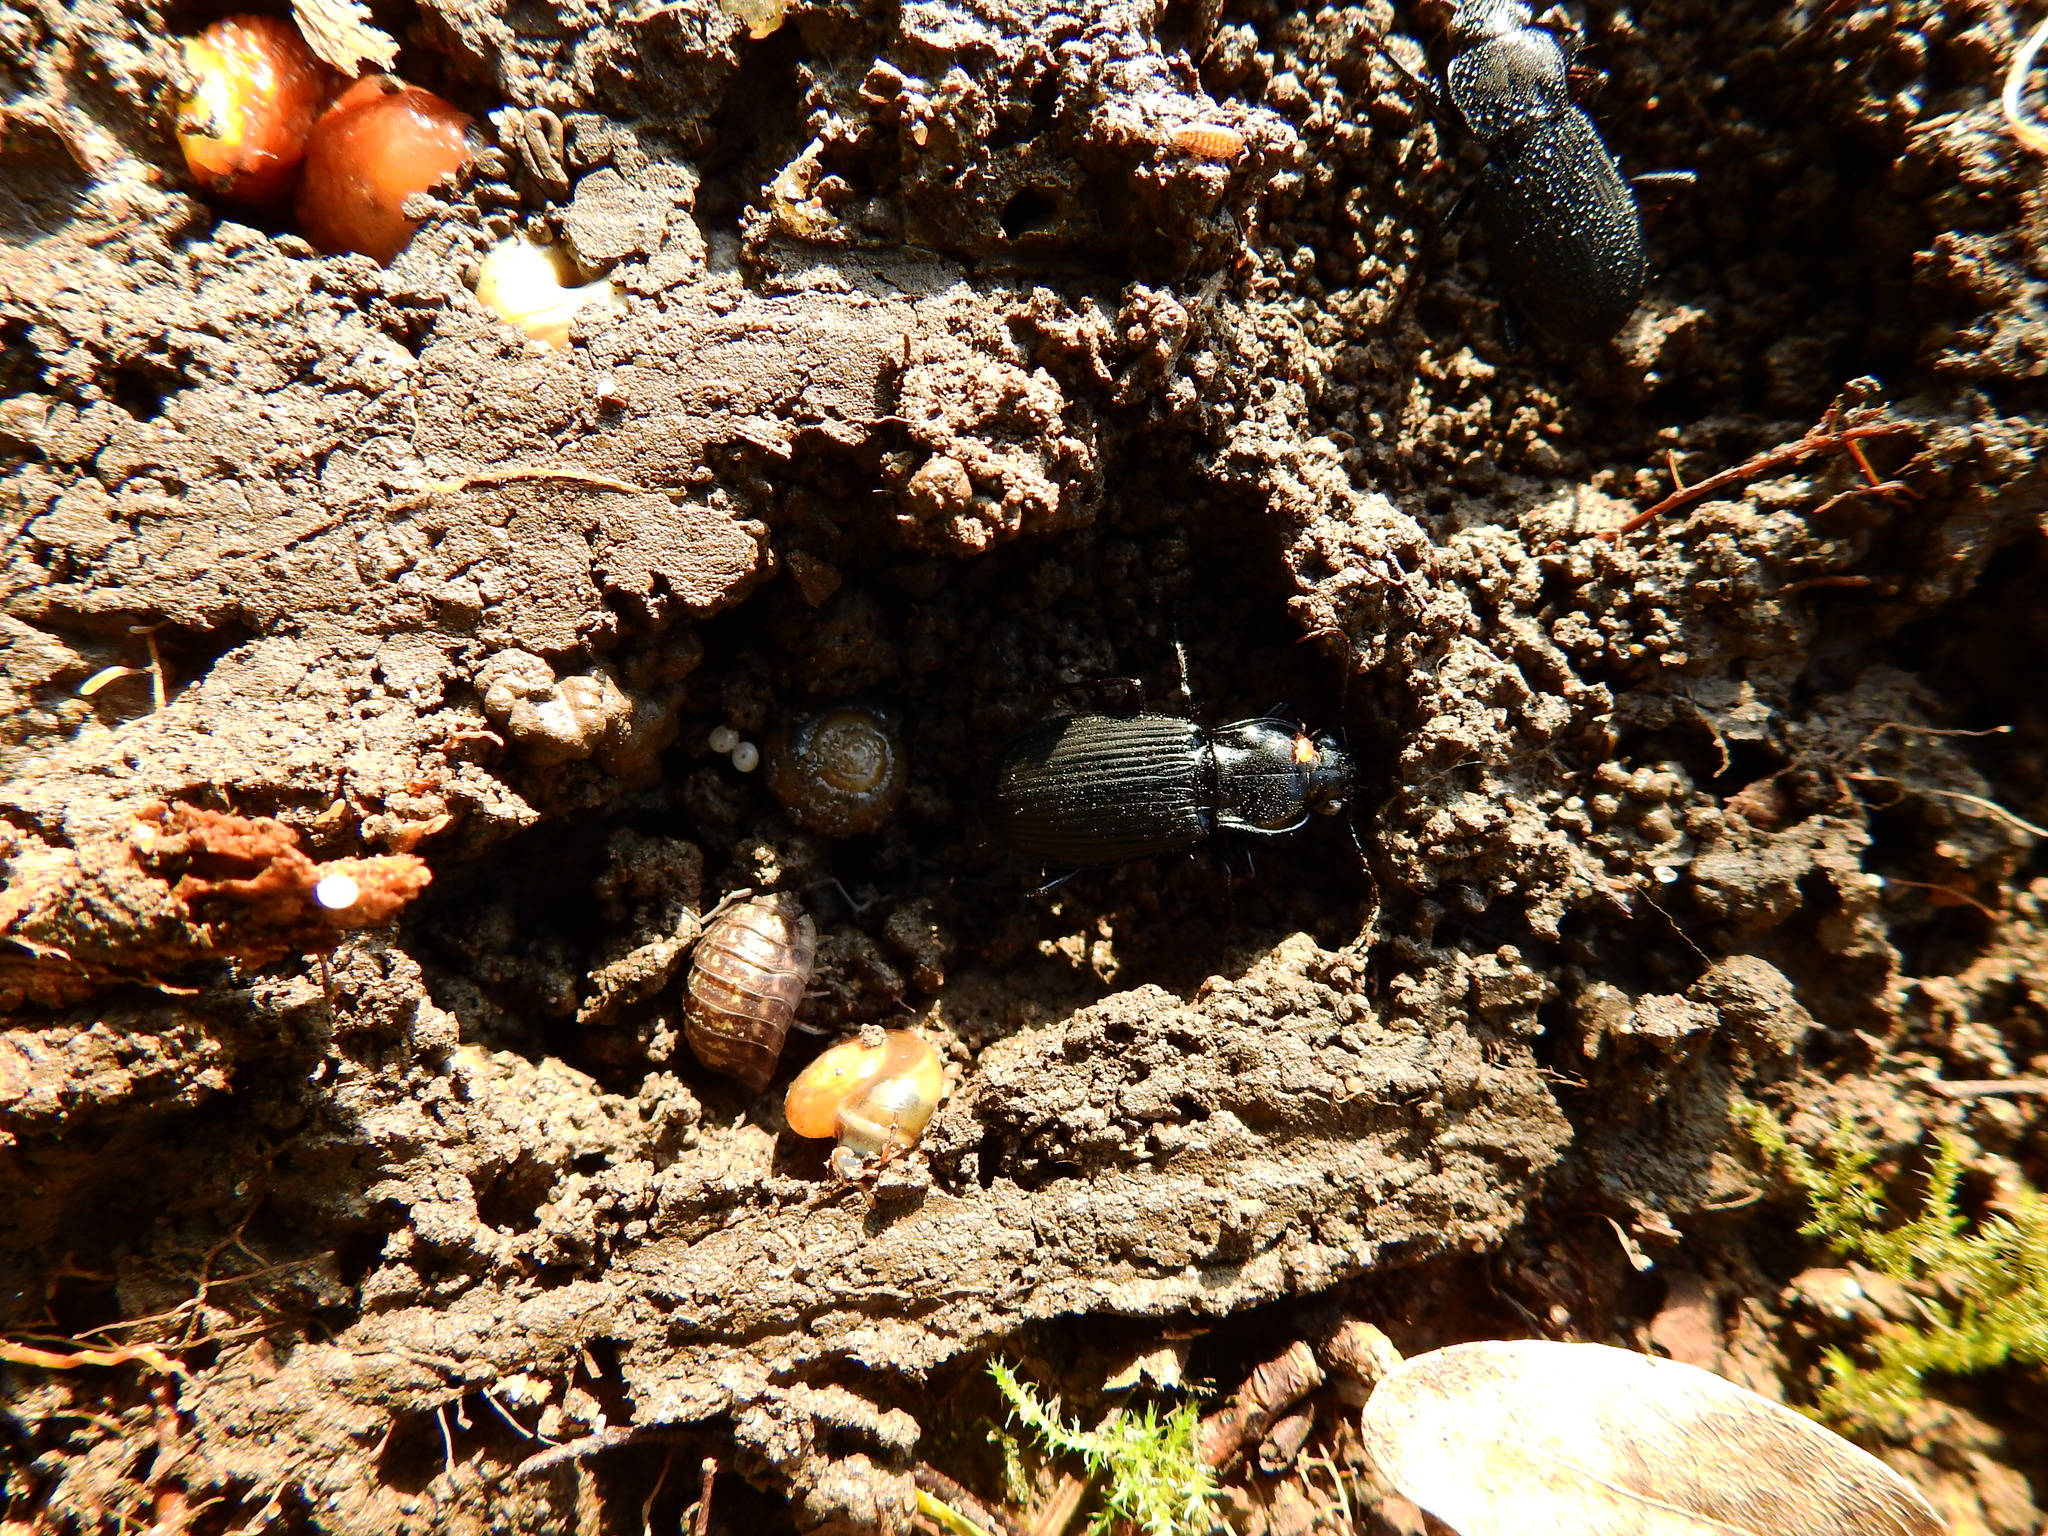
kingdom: Animalia
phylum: Arthropoda
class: Insecta
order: Coleoptera
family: Carabidae
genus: Pterostichus
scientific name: Pterostichus niger
